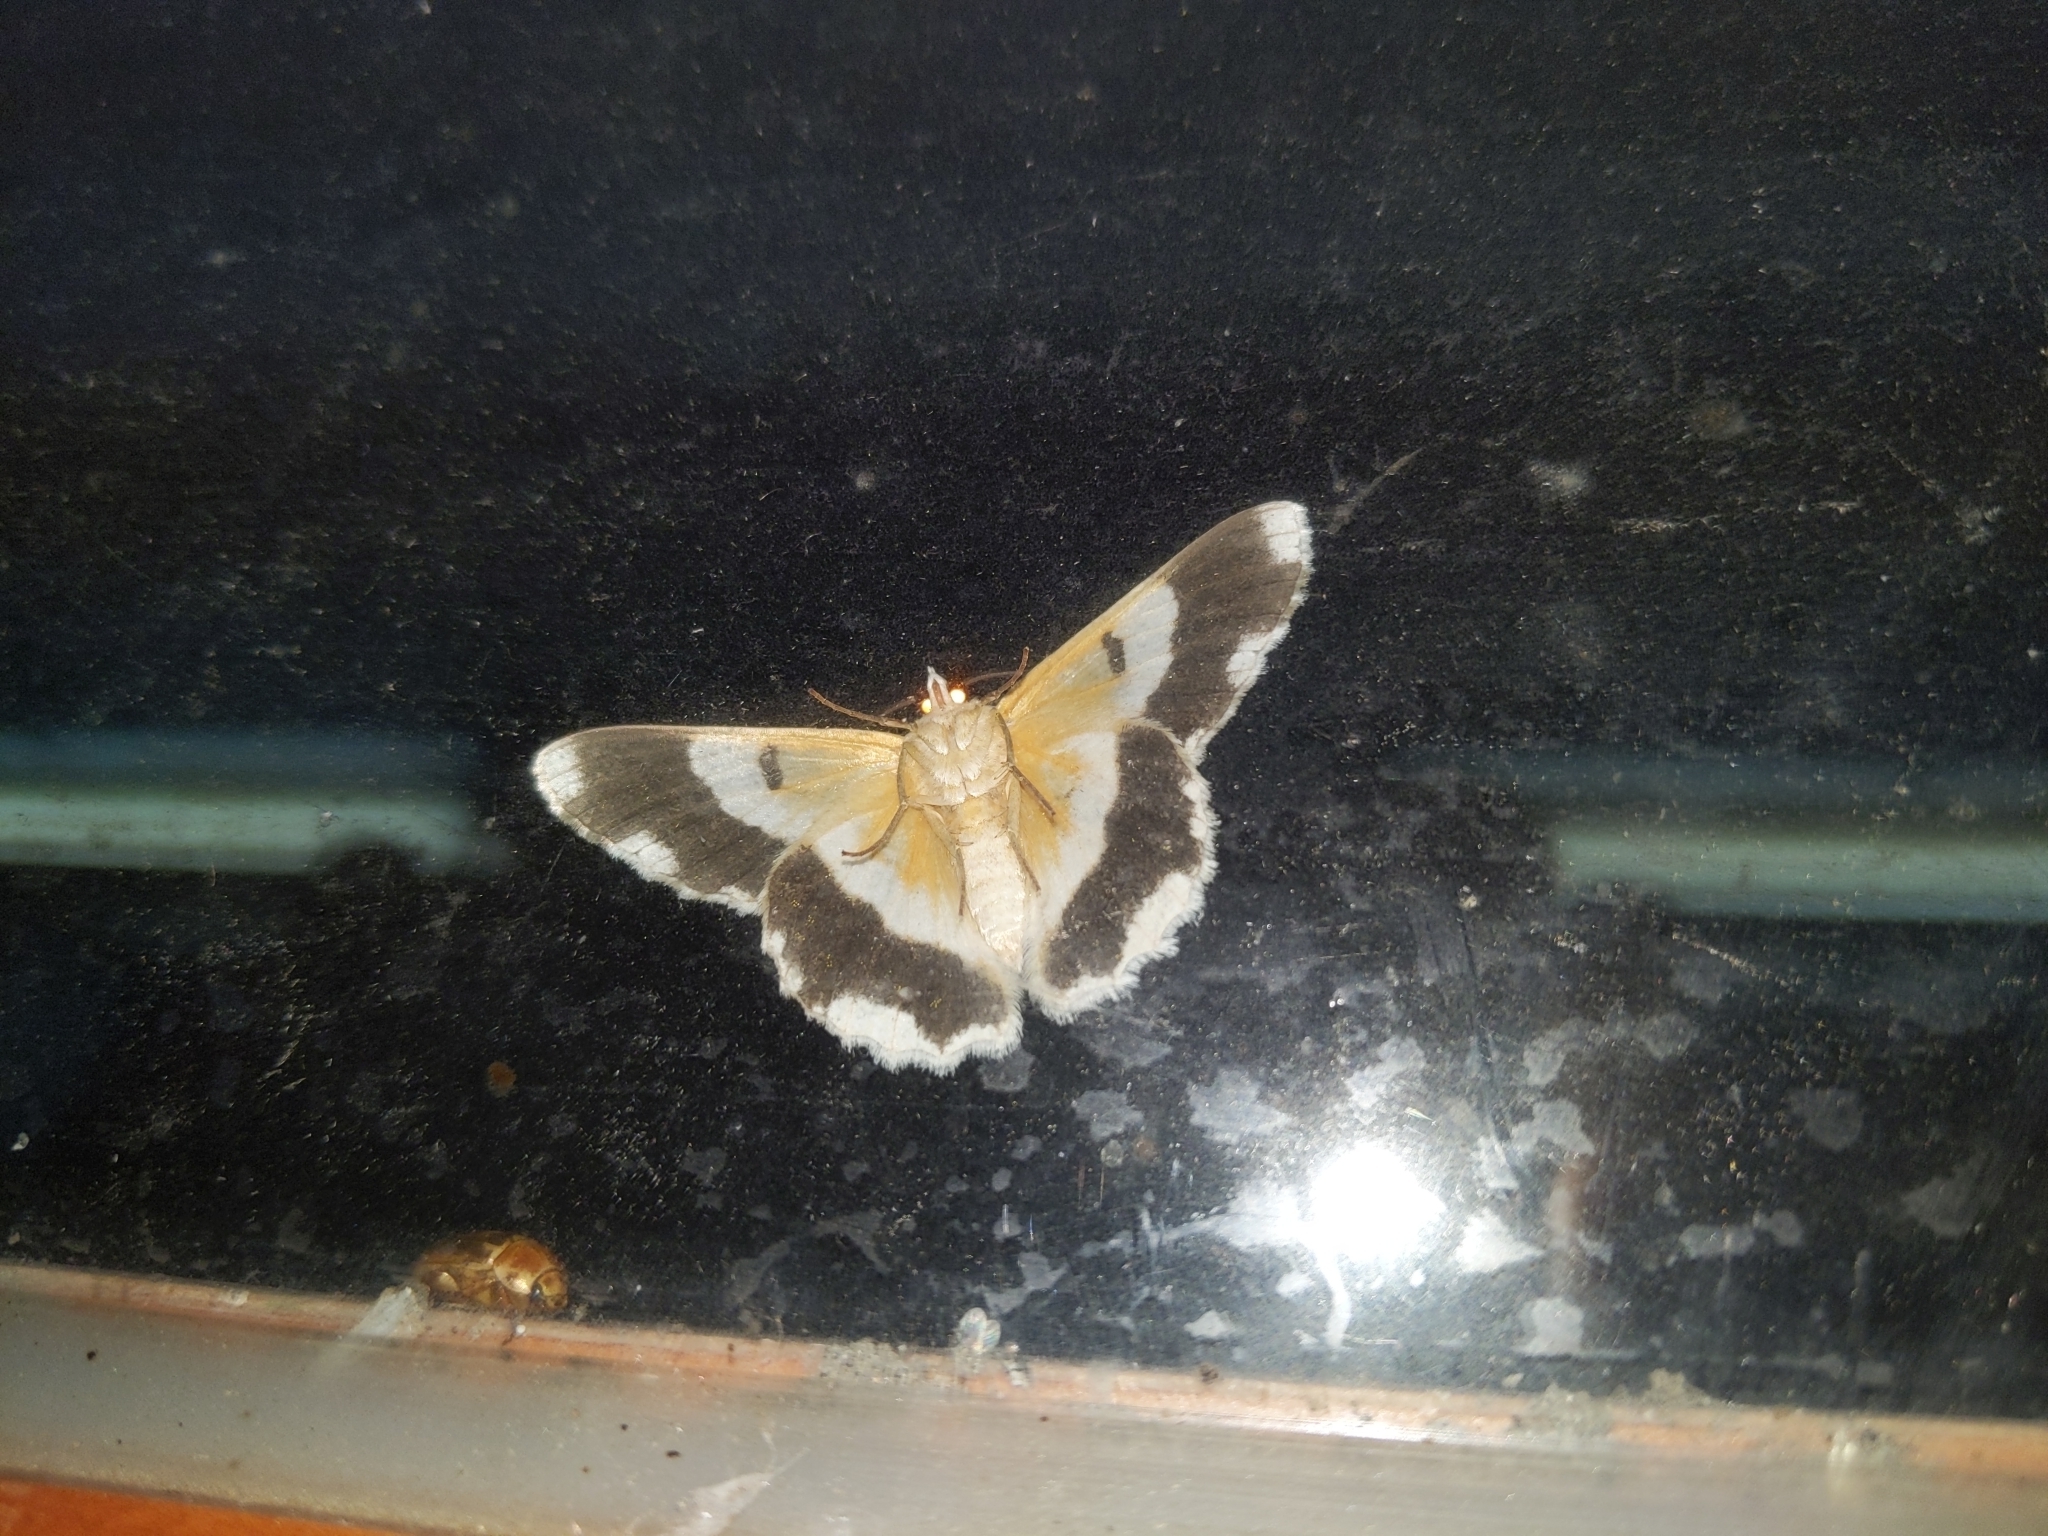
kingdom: Animalia
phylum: Arthropoda
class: Insecta
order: Lepidoptera
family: Geometridae
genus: Pingasa
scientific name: Pingasa ruginaria
